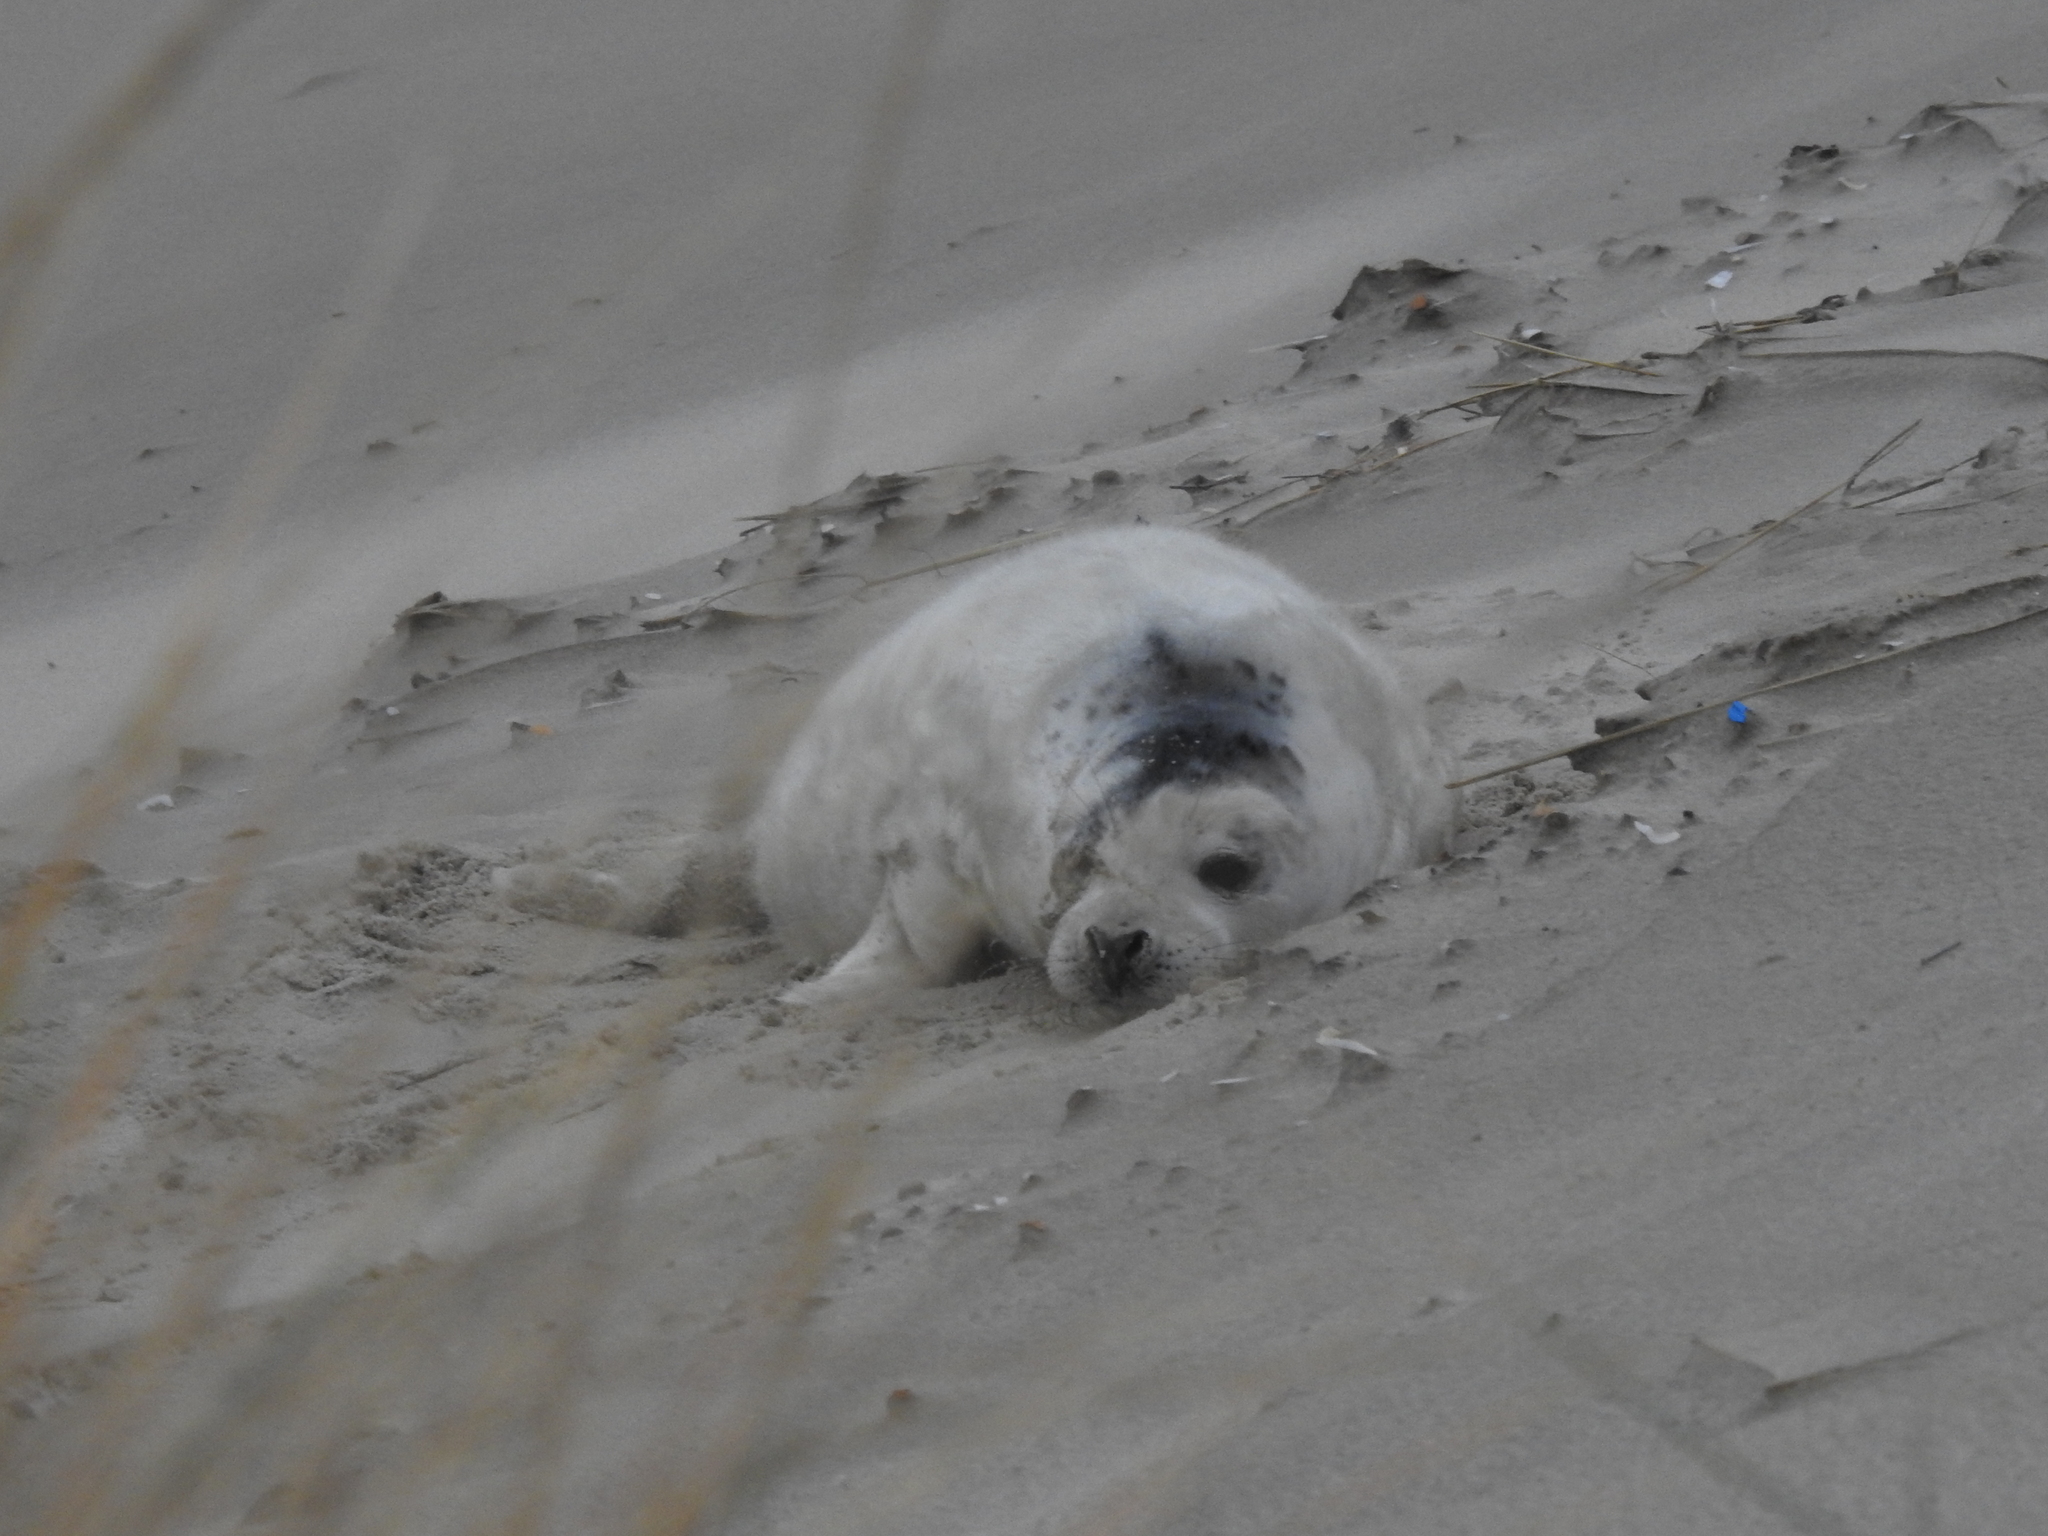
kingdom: Animalia
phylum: Chordata
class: Mammalia
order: Carnivora
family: Phocidae
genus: Halichoerus
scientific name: Halichoerus grypus
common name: Grey seal
